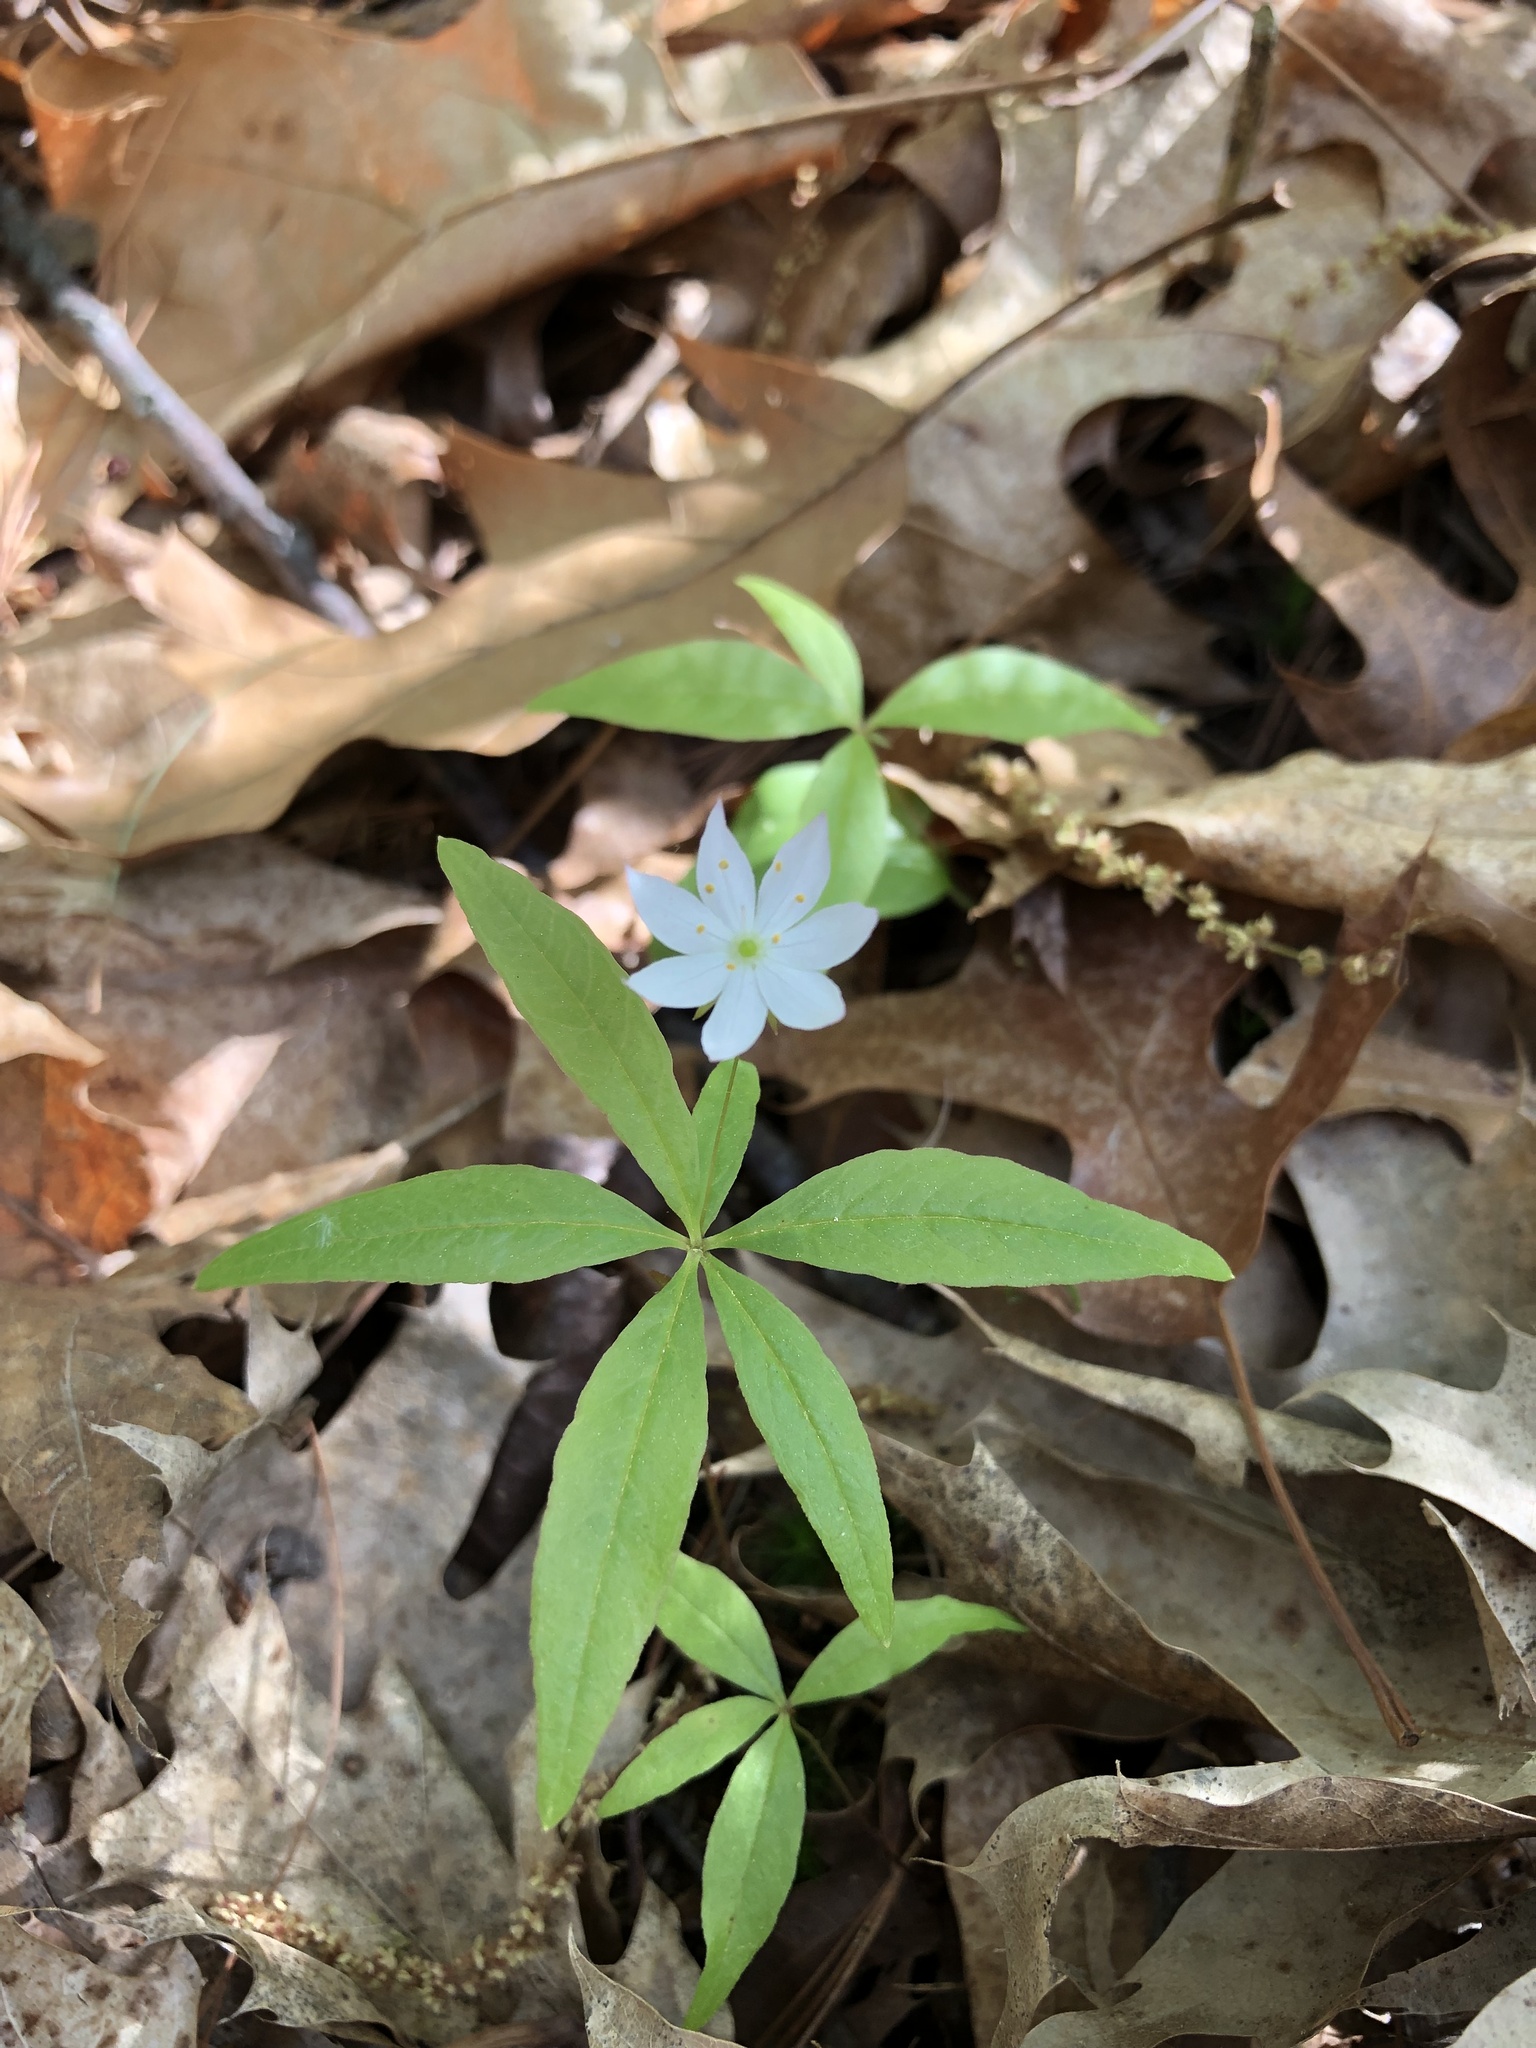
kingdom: Plantae
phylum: Tracheophyta
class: Magnoliopsida
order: Ericales
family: Primulaceae
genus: Lysimachia
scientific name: Lysimachia borealis
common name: American starflower
